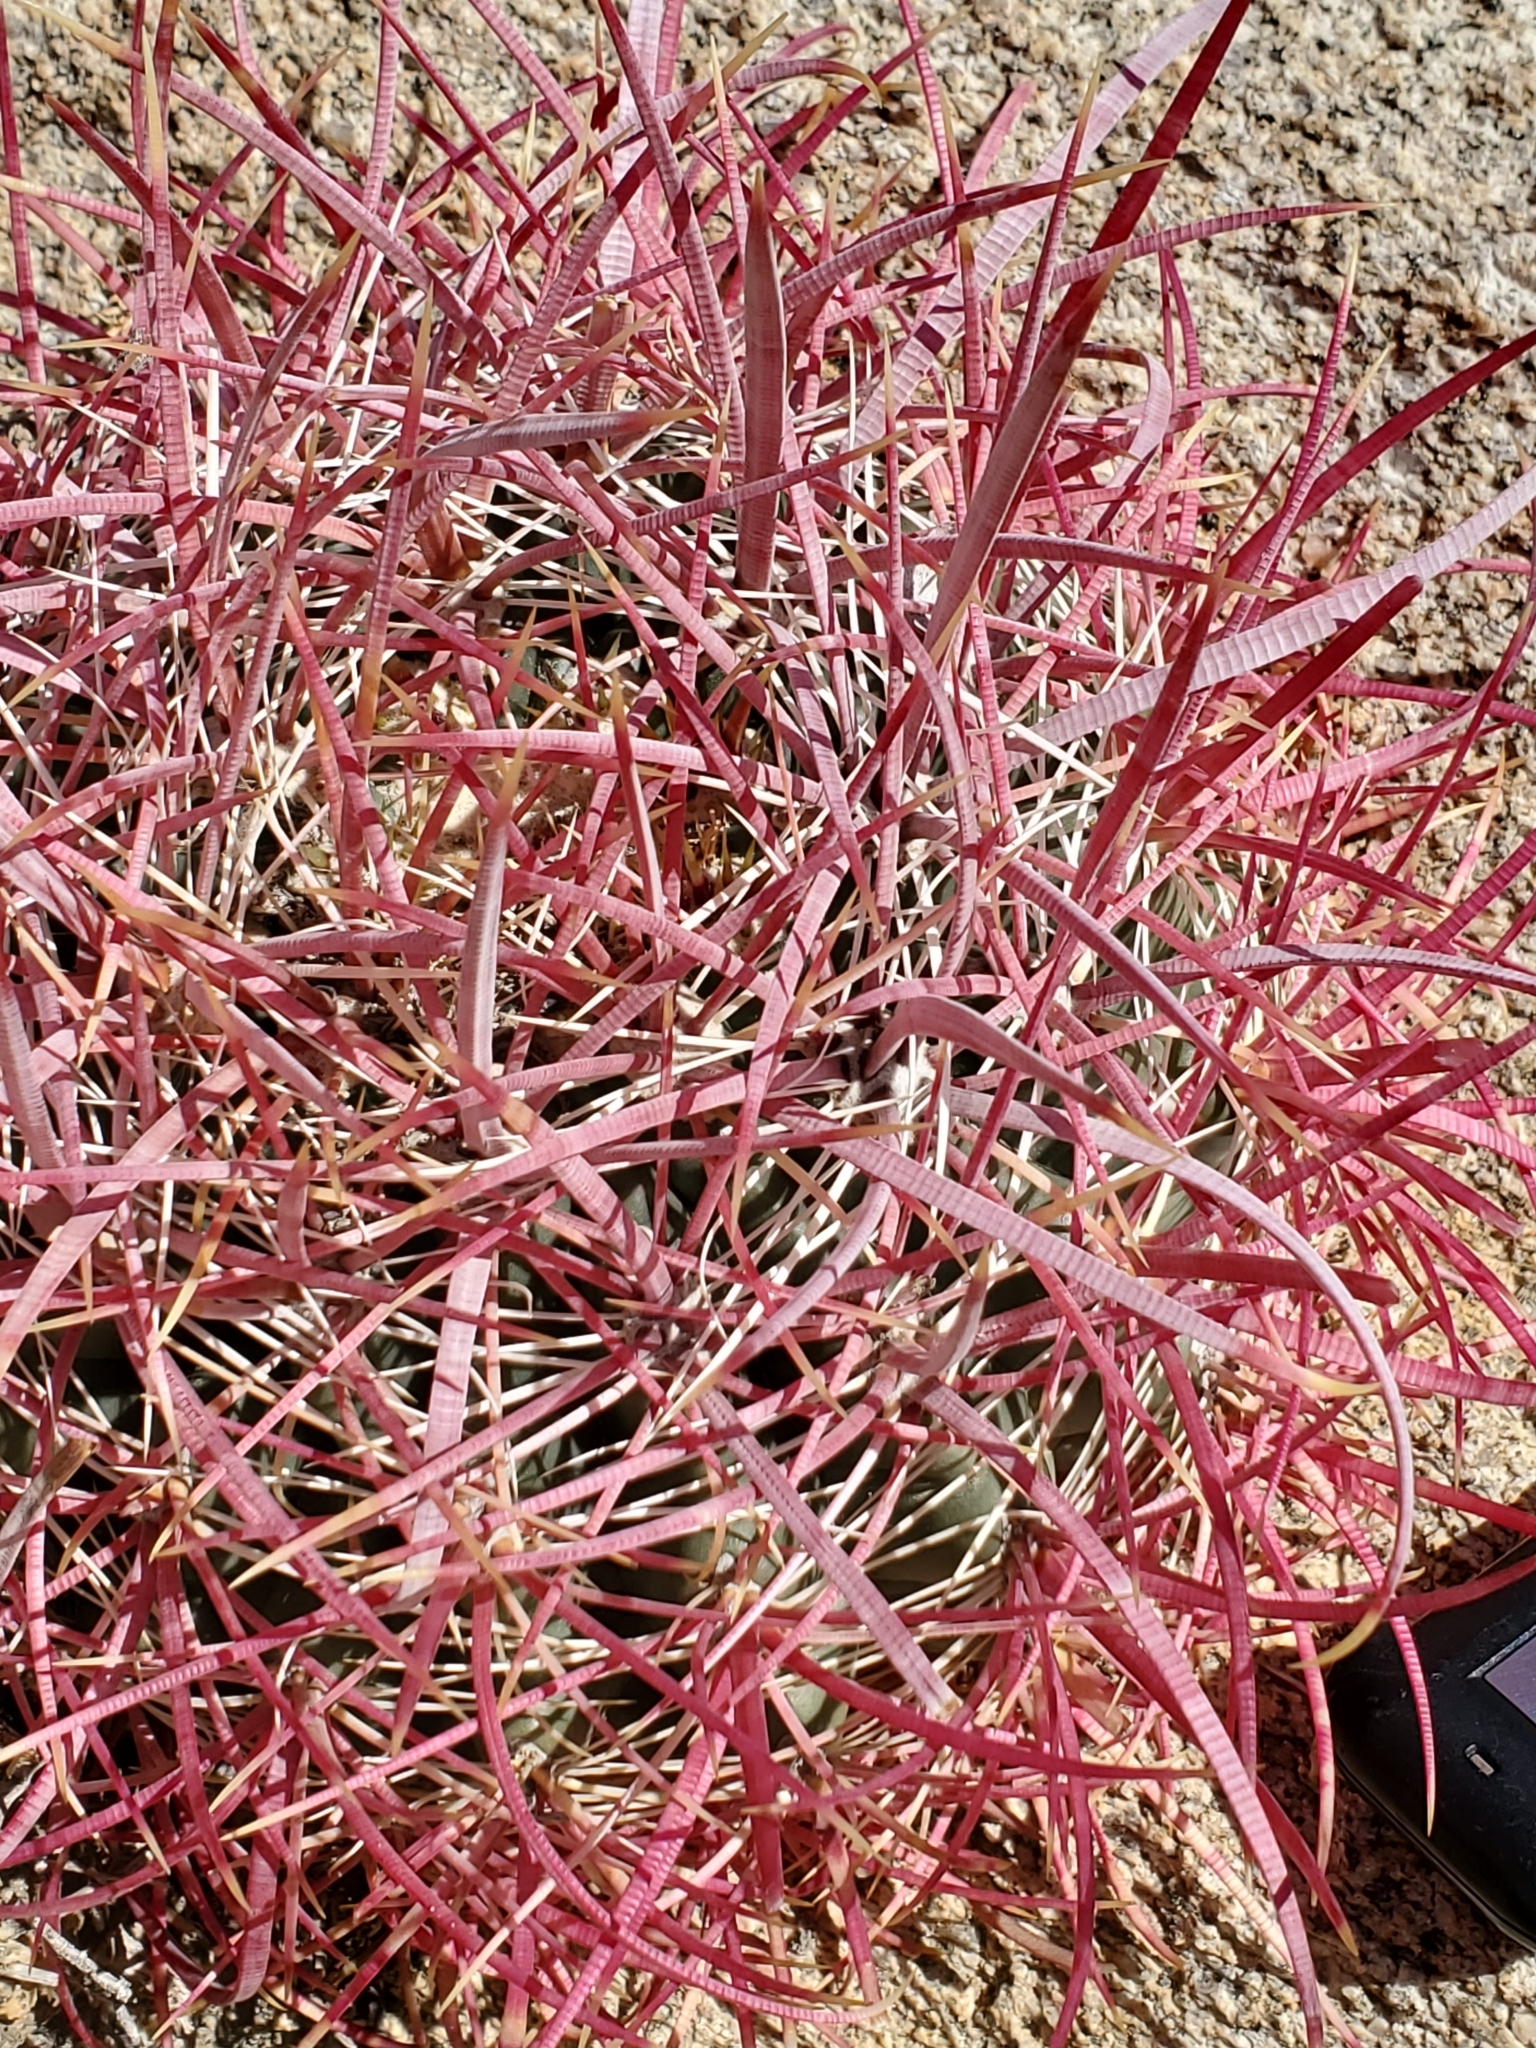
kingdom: Plantae
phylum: Tracheophyta
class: Magnoliopsida
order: Caryophyllales
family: Cactaceae
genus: Ferocactus
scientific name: Ferocactus cylindraceus
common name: California barrel cactus
